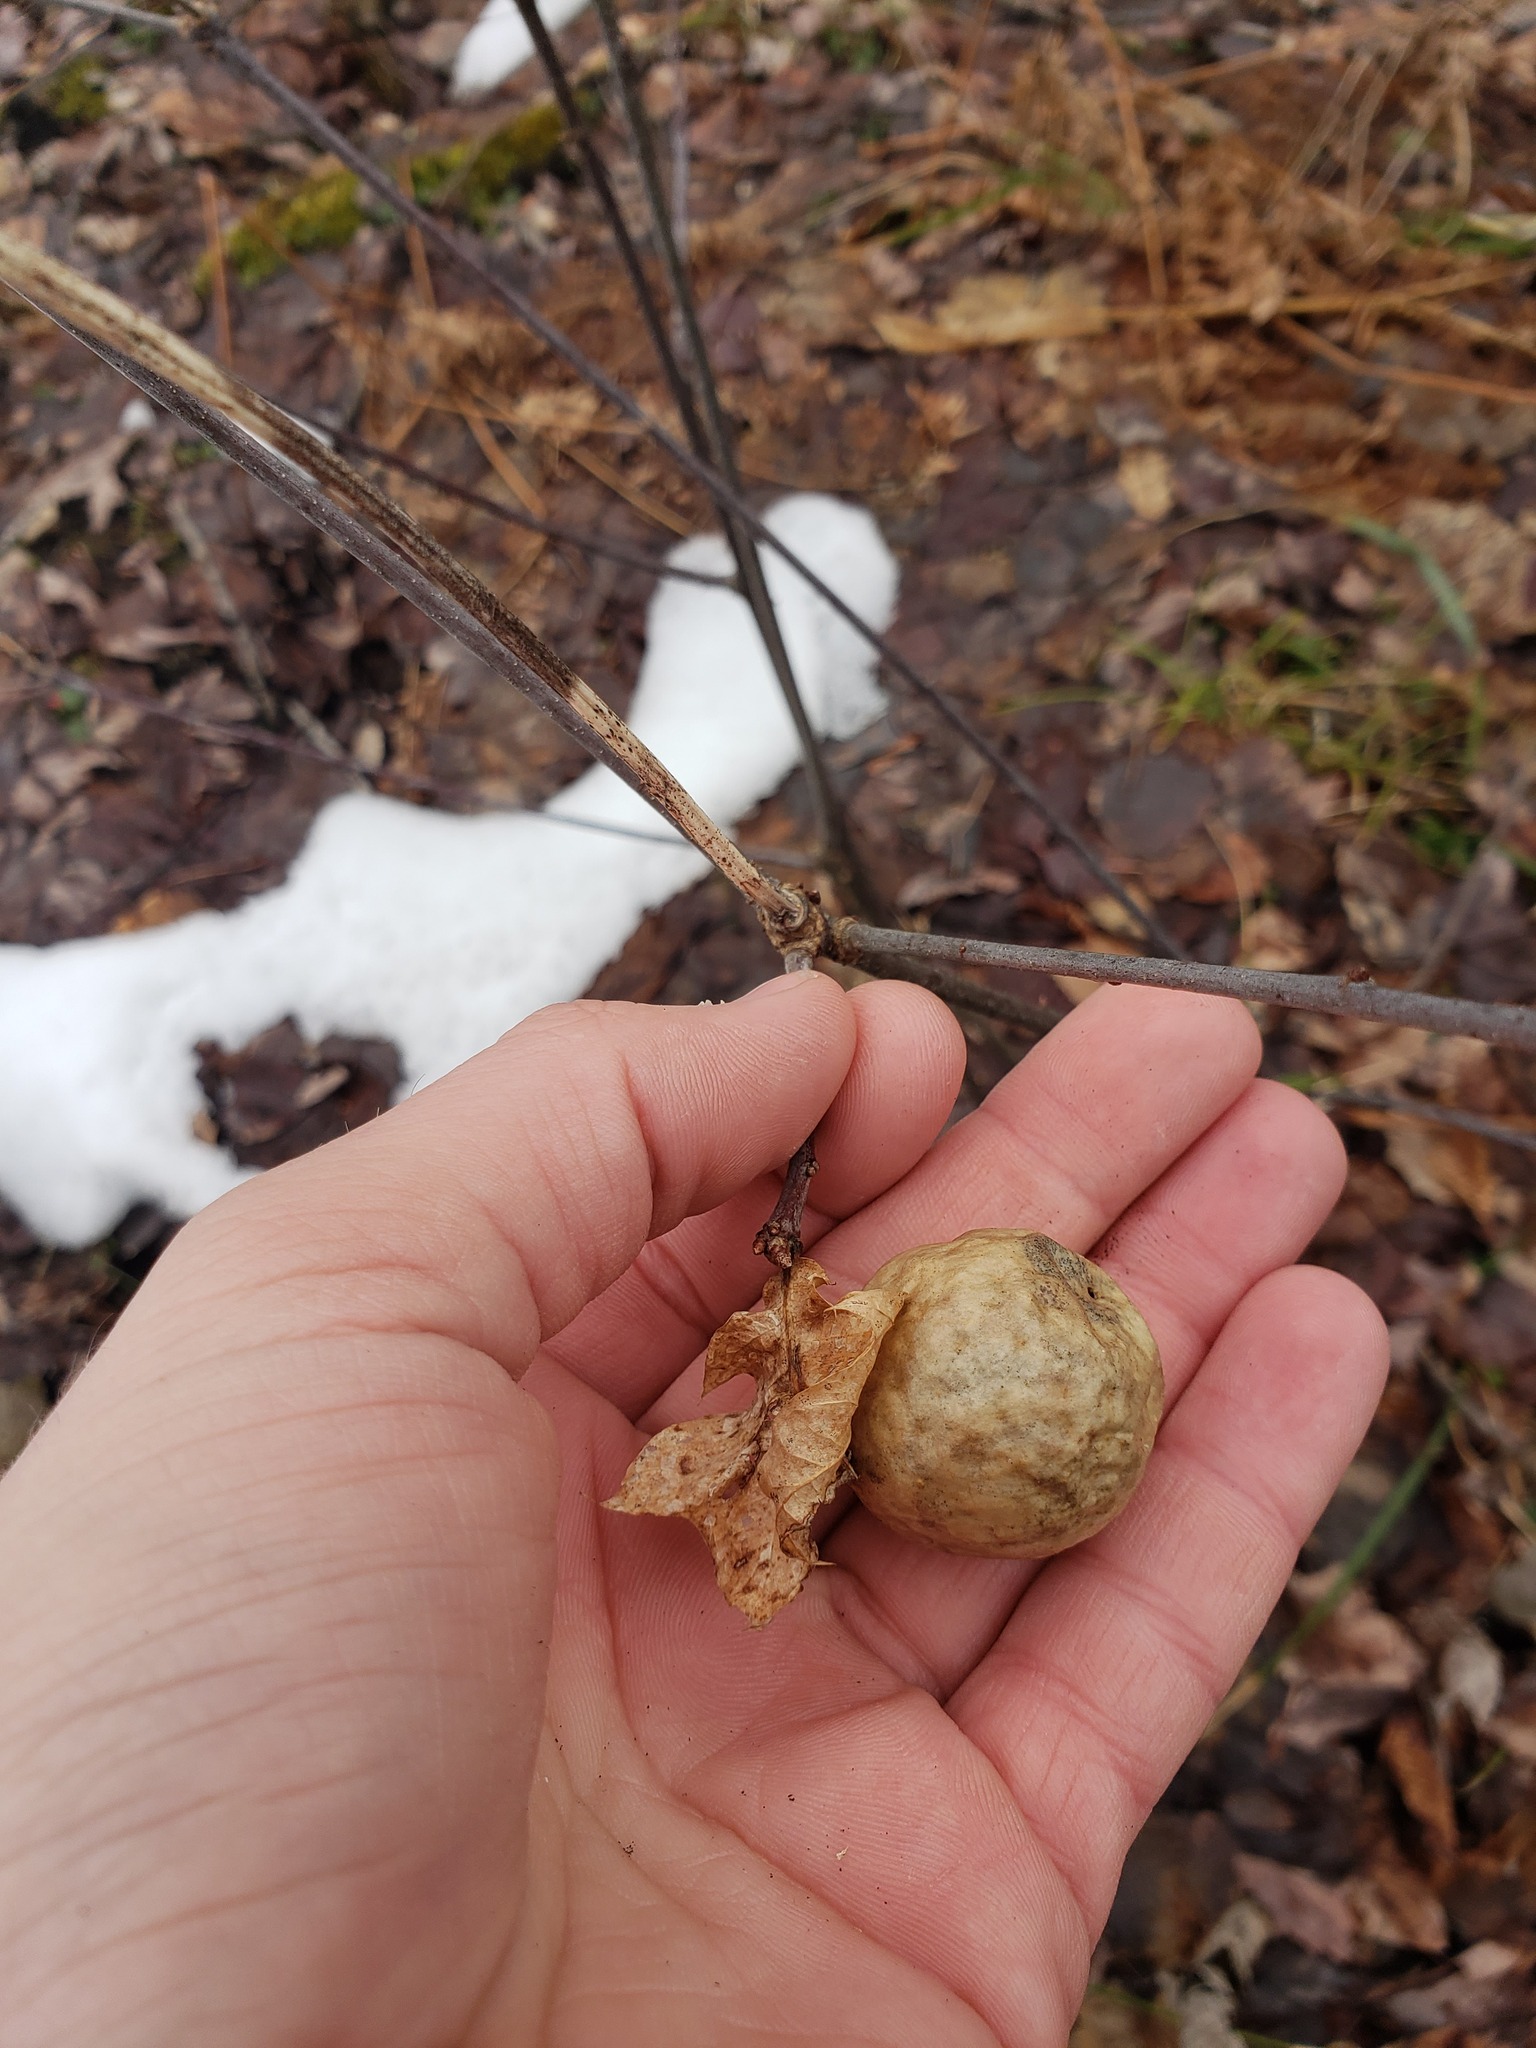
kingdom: Animalia
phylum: Arthropoda
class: Insecta
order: Hymenoptera
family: Cynipidae
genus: Amphibolips
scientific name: Amphibolips
